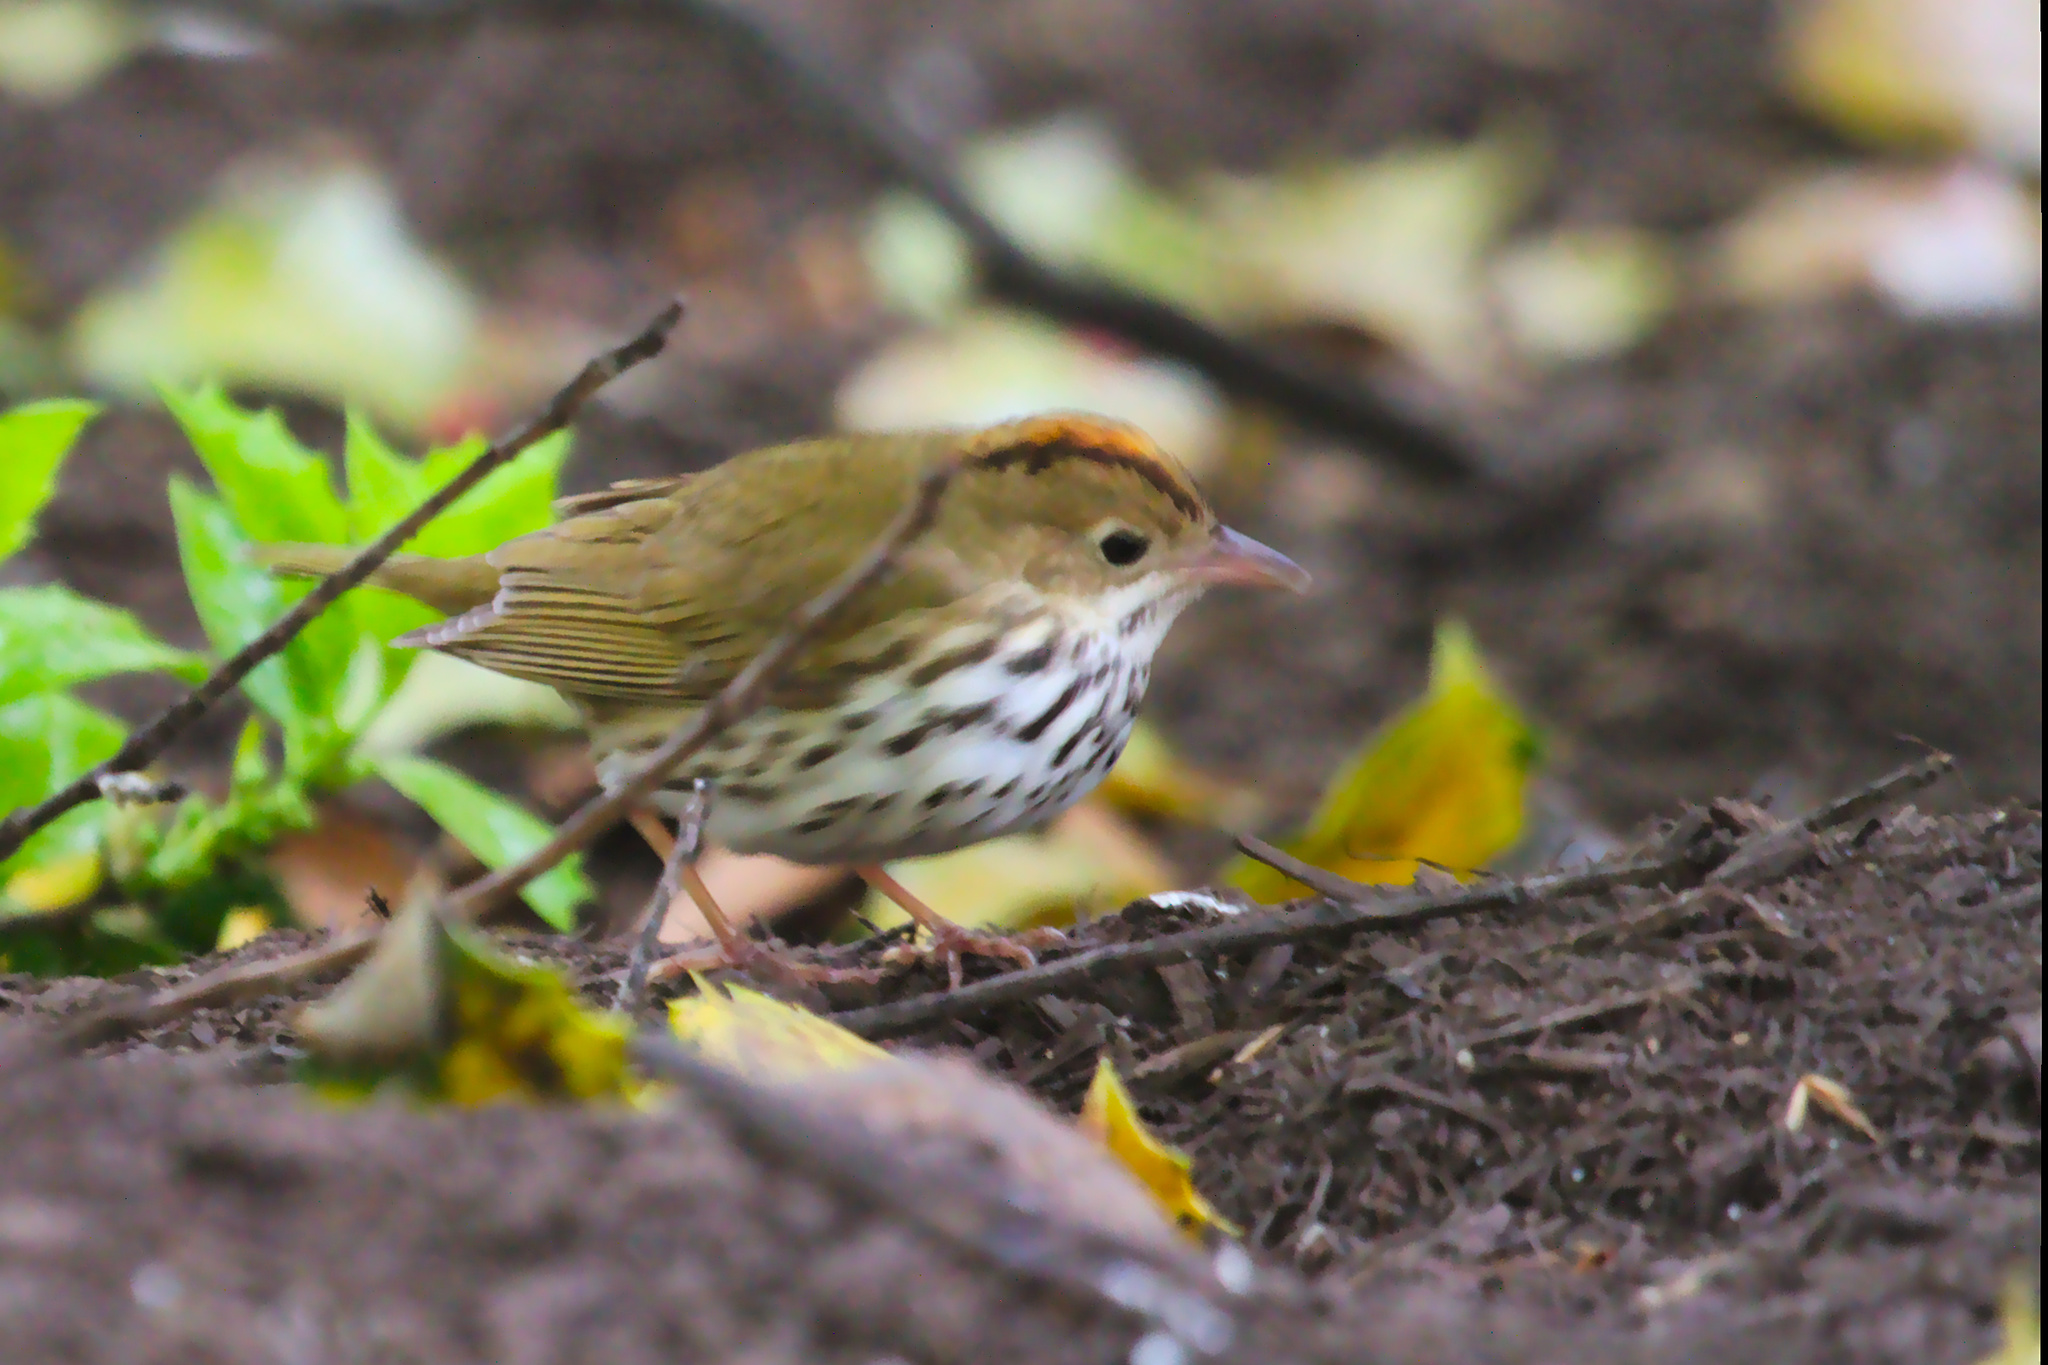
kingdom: Animalia
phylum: Chordata
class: Aves
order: Passeriformes
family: Parulidae
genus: Seiurus
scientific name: Seiurus aurocapilla
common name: Ovenbird
